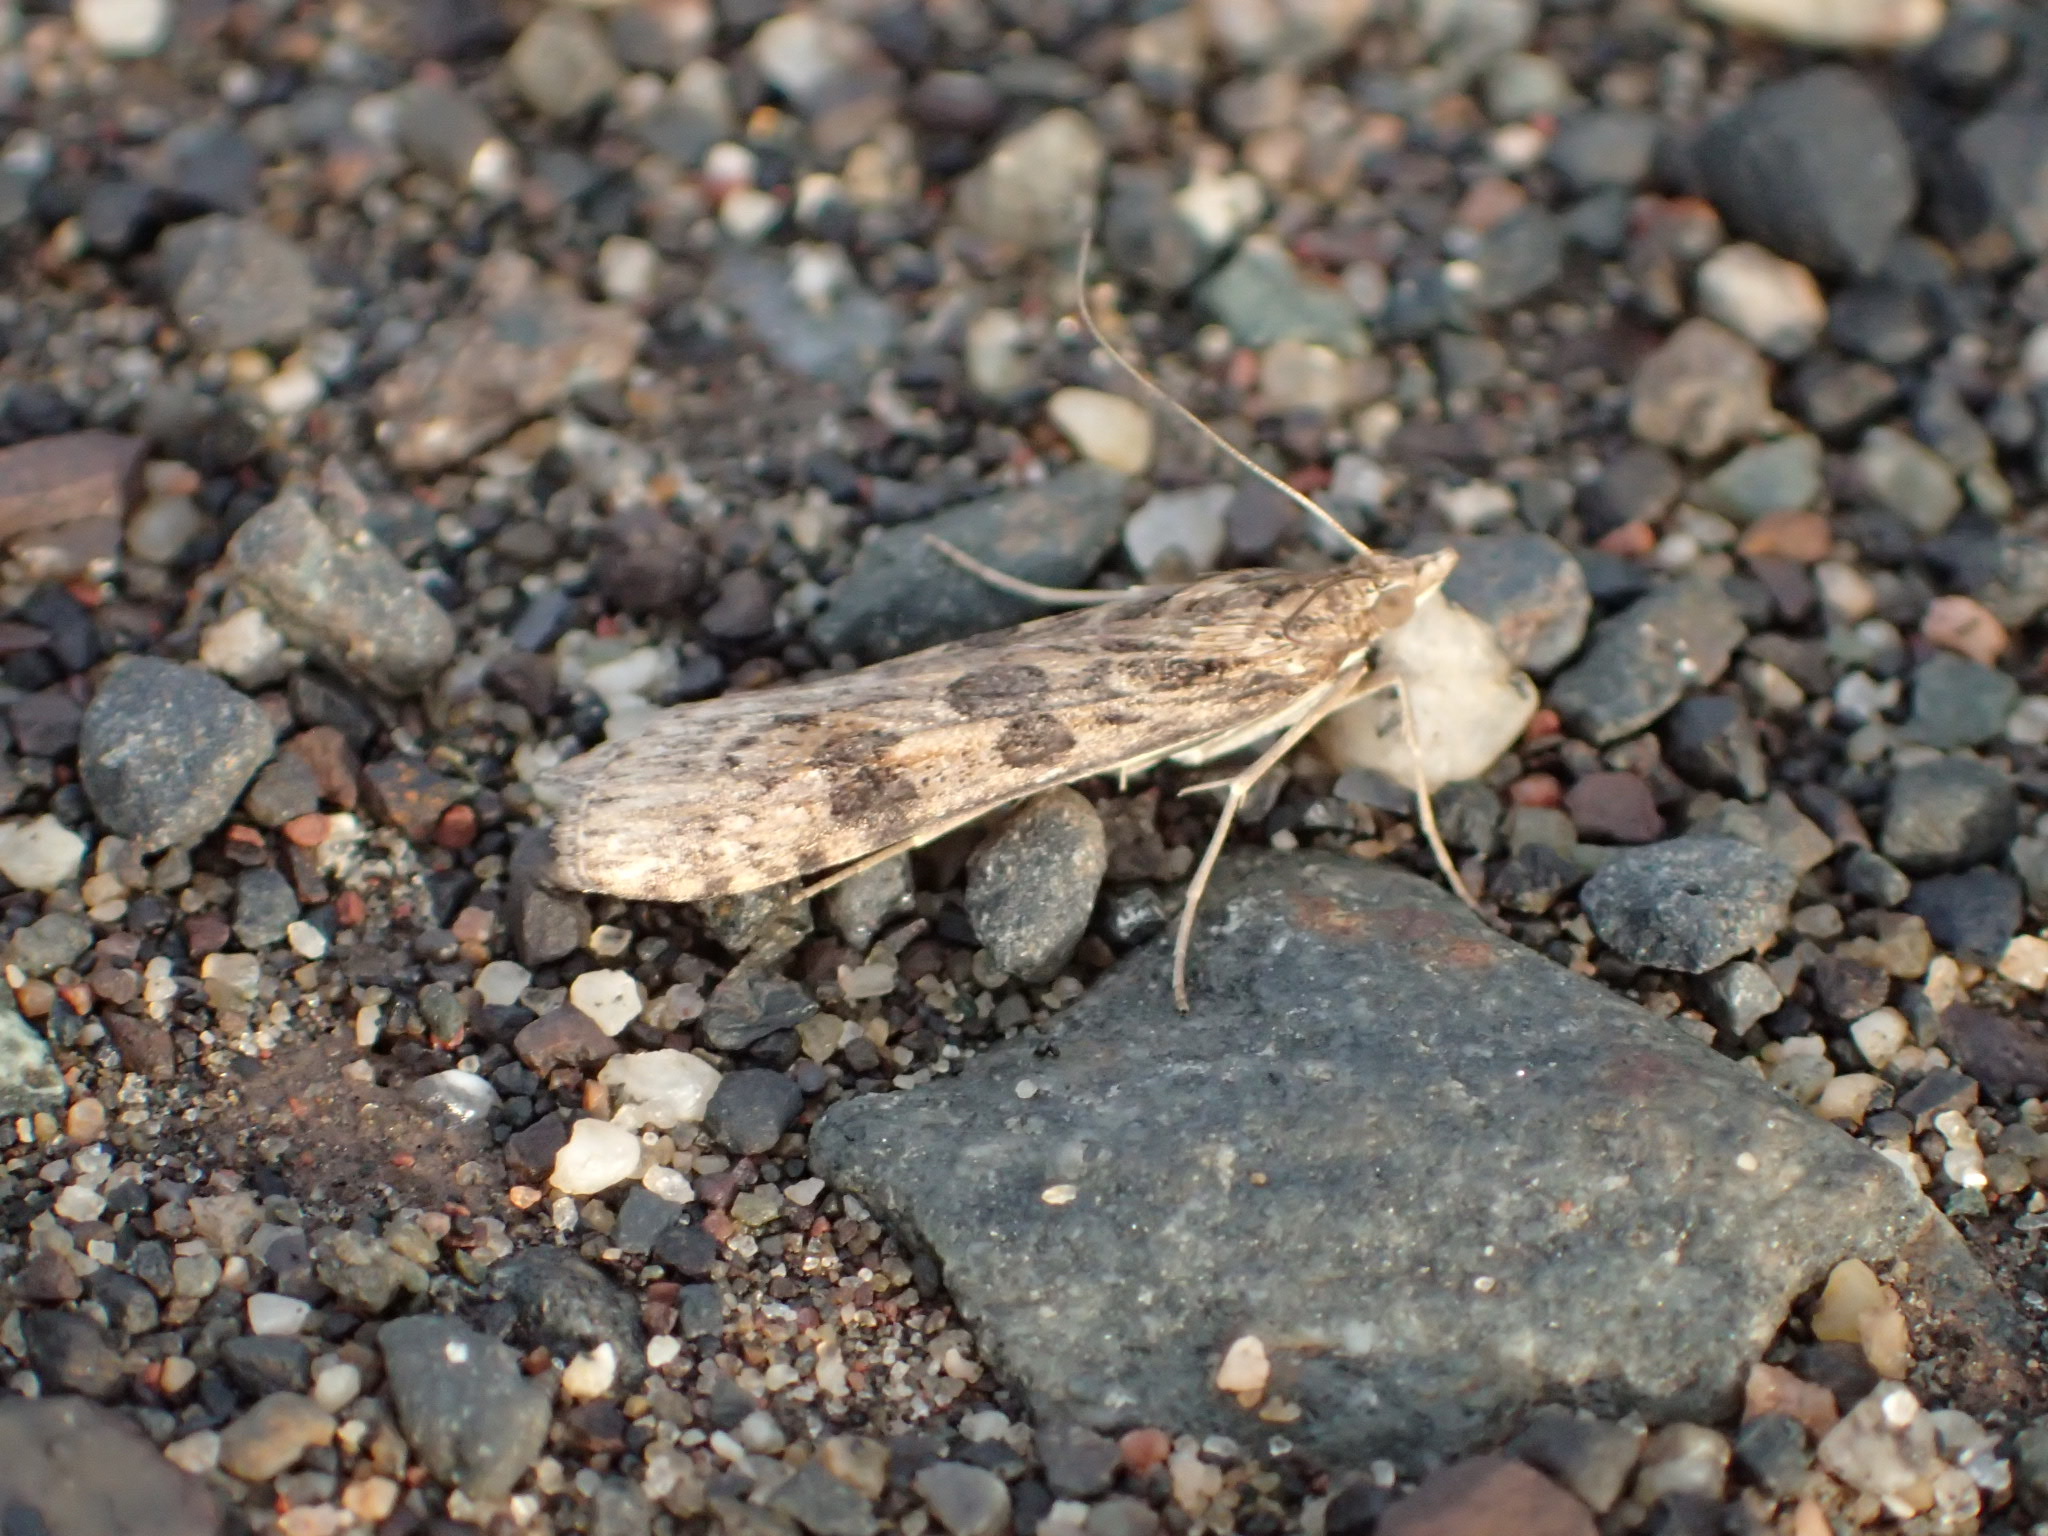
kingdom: Animalia
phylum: Arthropoda
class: Insecta
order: Lepidoptera
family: Crambidae
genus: Nomophila
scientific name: Nomophila nearctica
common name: American rush veneer
